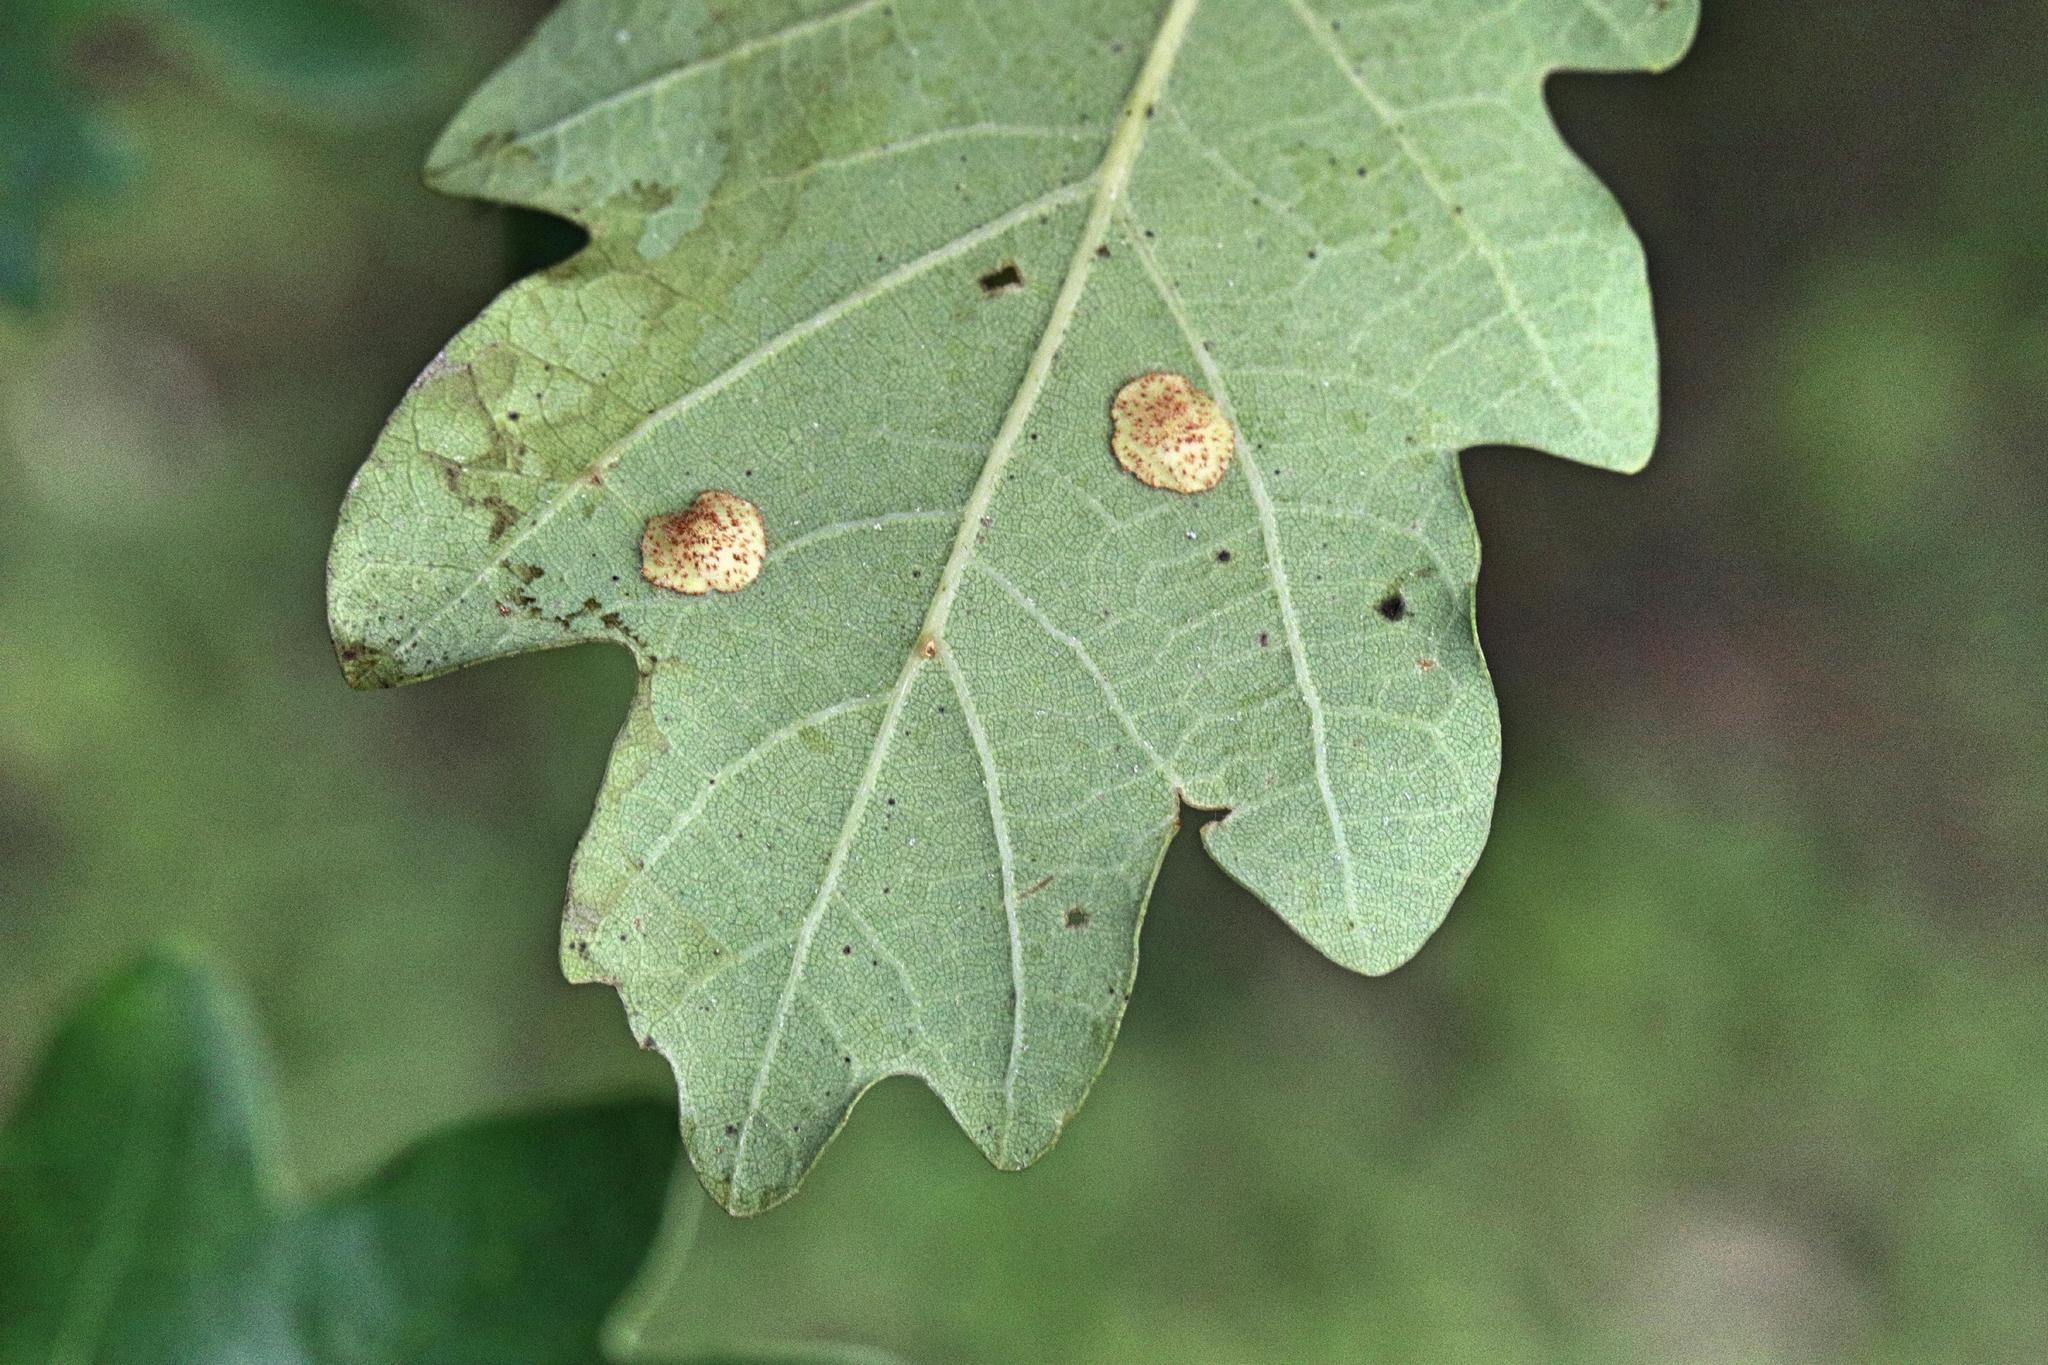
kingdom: Animalia
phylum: Arthropoda
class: Insecta
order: Hymenoptera
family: Cynipidae
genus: Neuroterus
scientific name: Neuroterus quercusbaccarum
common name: Common spangle gall
